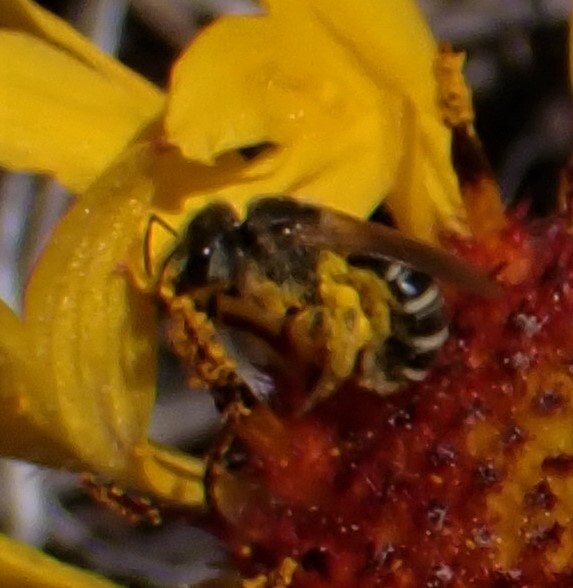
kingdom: Animalia
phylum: Arthropoda
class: Insecta
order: Hymenoptera
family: Halictidae
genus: Halictus
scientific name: Halictus ligatus
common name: Ligated furrow bee
